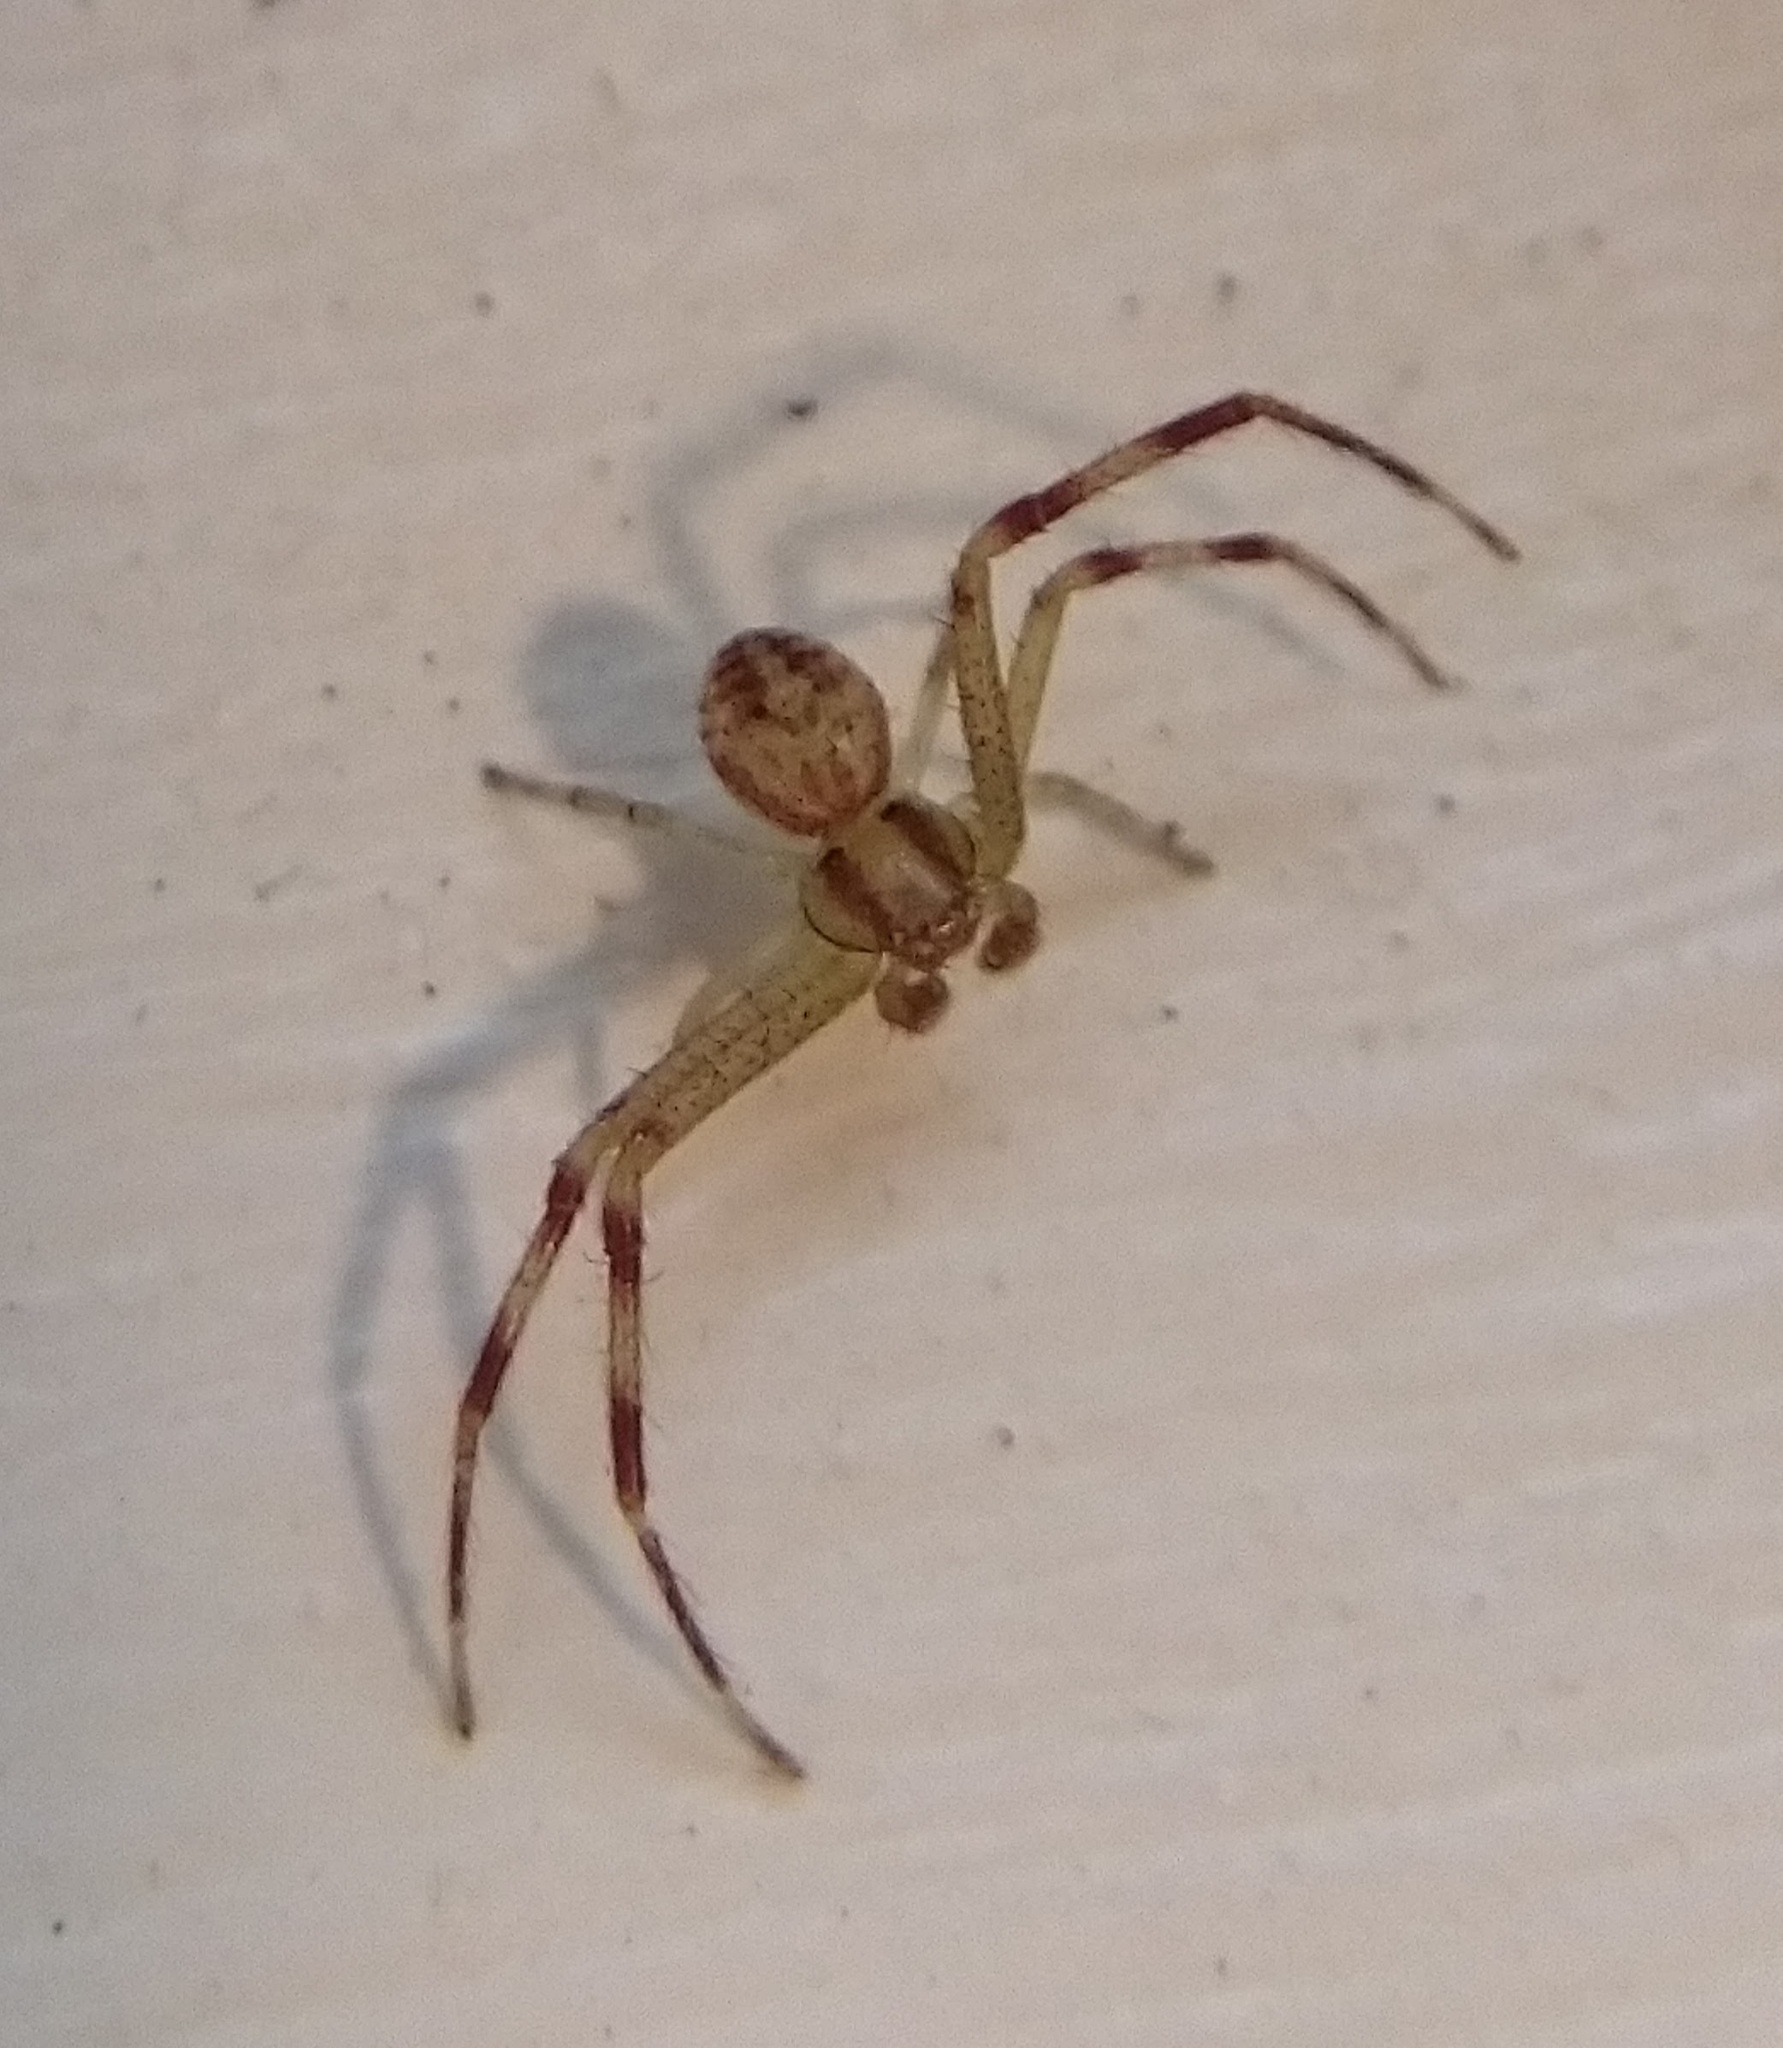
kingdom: Animalia
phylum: Arthropoda
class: Arachnida
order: Araneae
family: Thomisidae
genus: Mecaphesa
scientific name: Mecaphesa asperata
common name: Crab spiders
